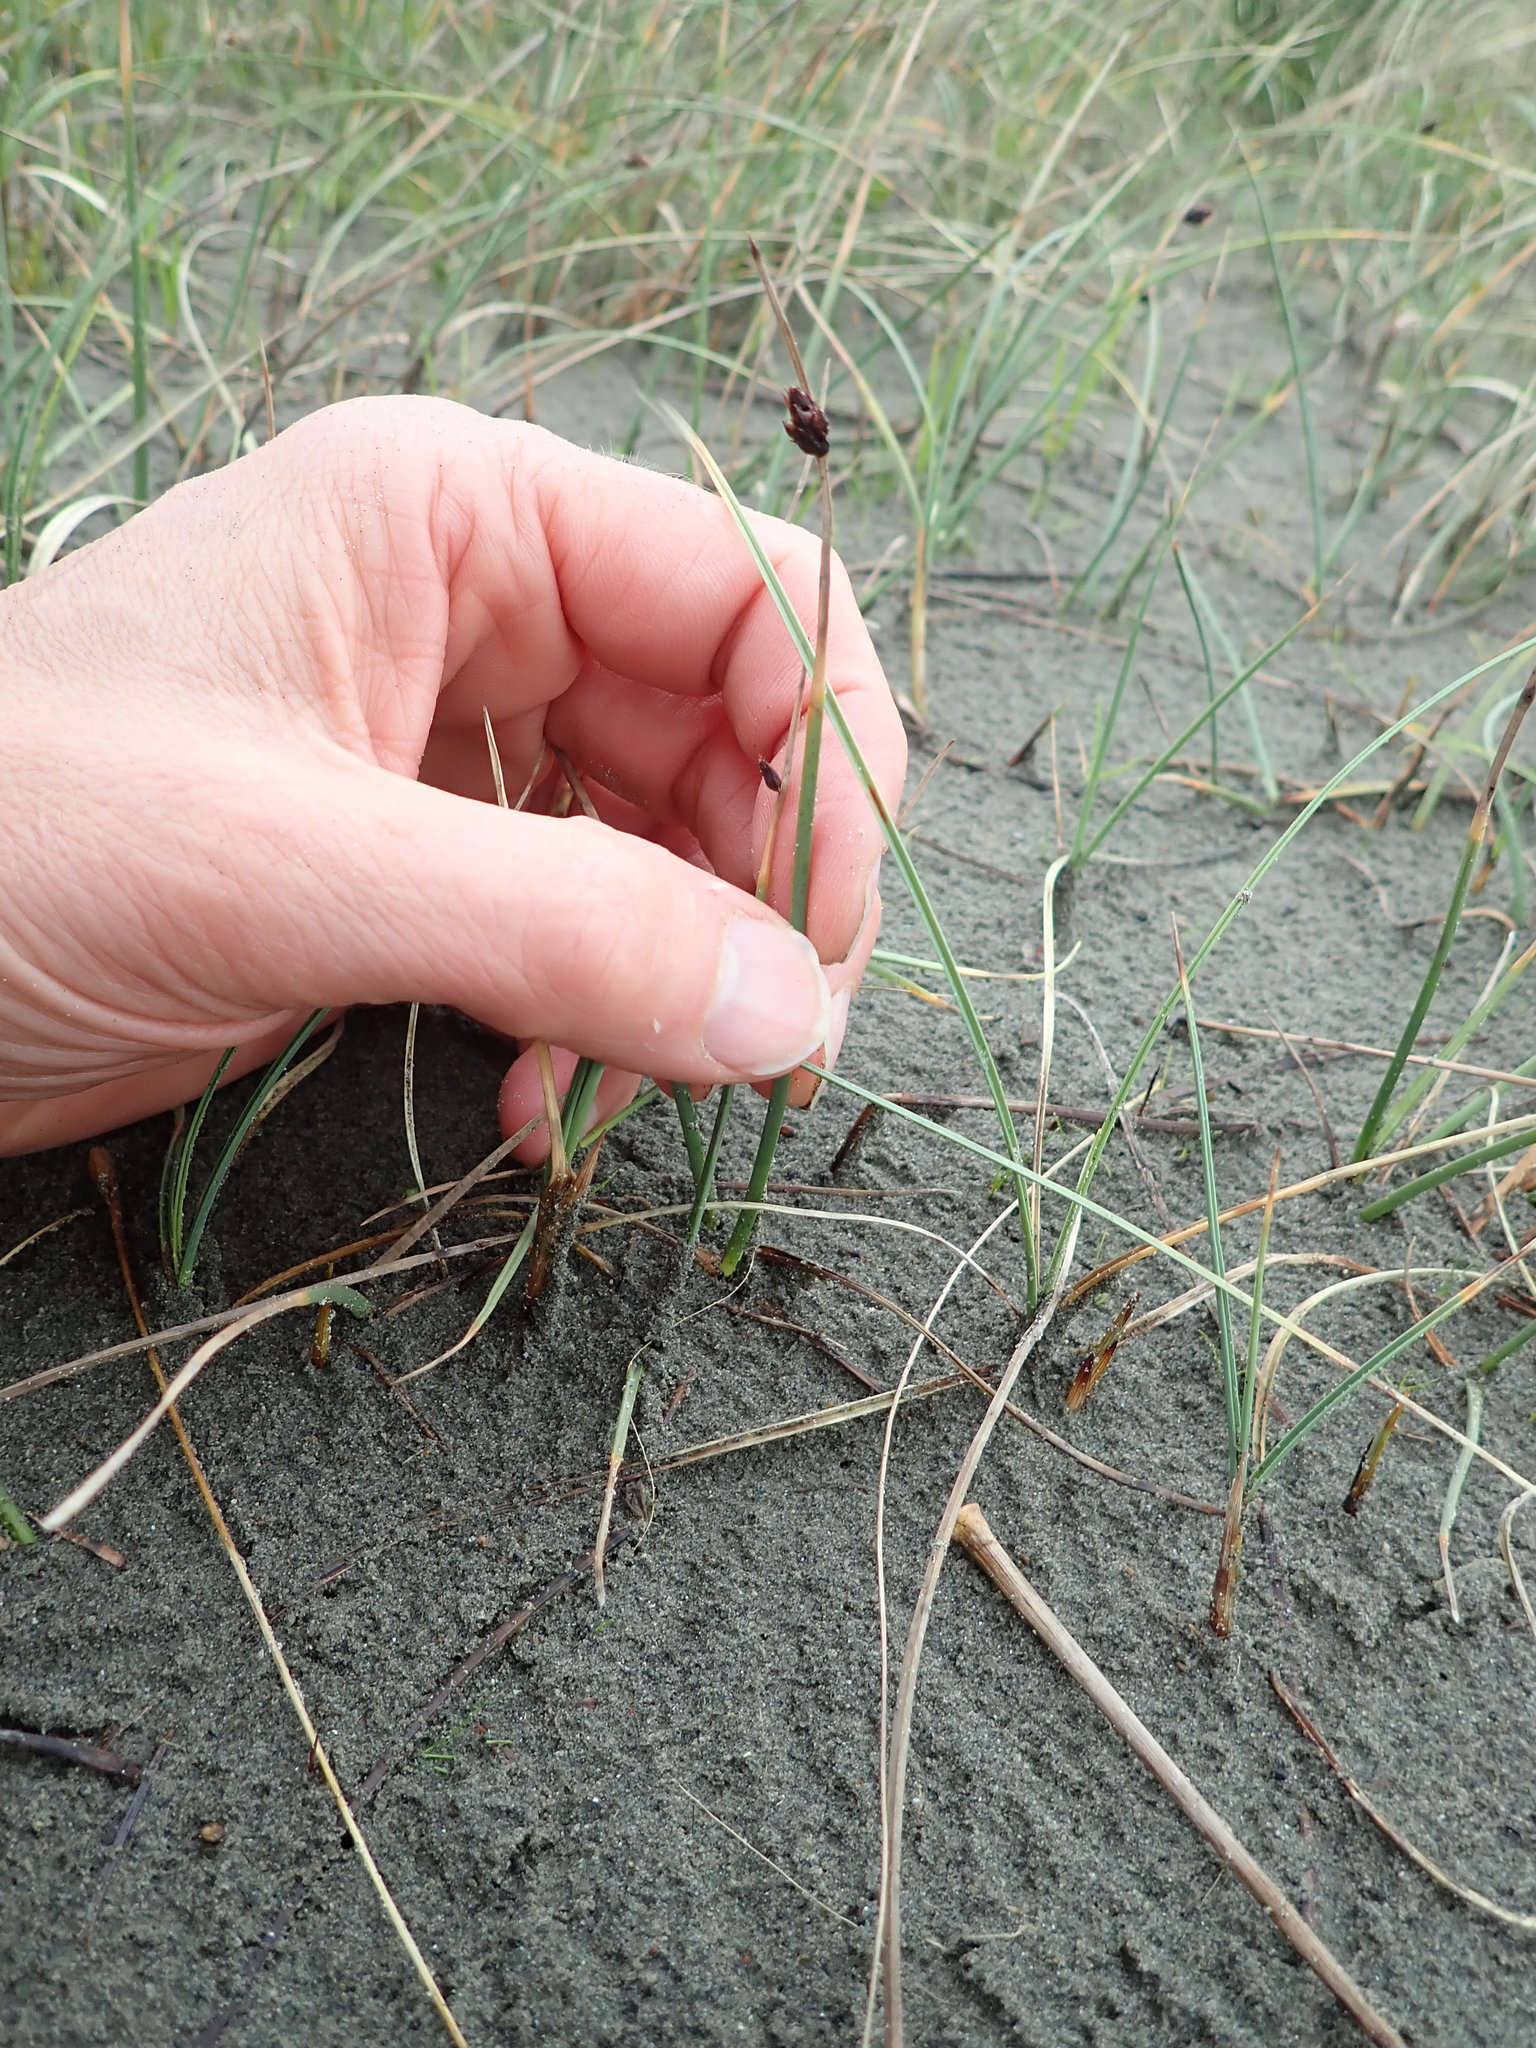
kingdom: Plantae
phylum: Tracheophyta
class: Liliopsida
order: Poales
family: Cyperaceae
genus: Schoenoplectus
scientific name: Schoenoplectus pungens
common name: Sharp club-rush
